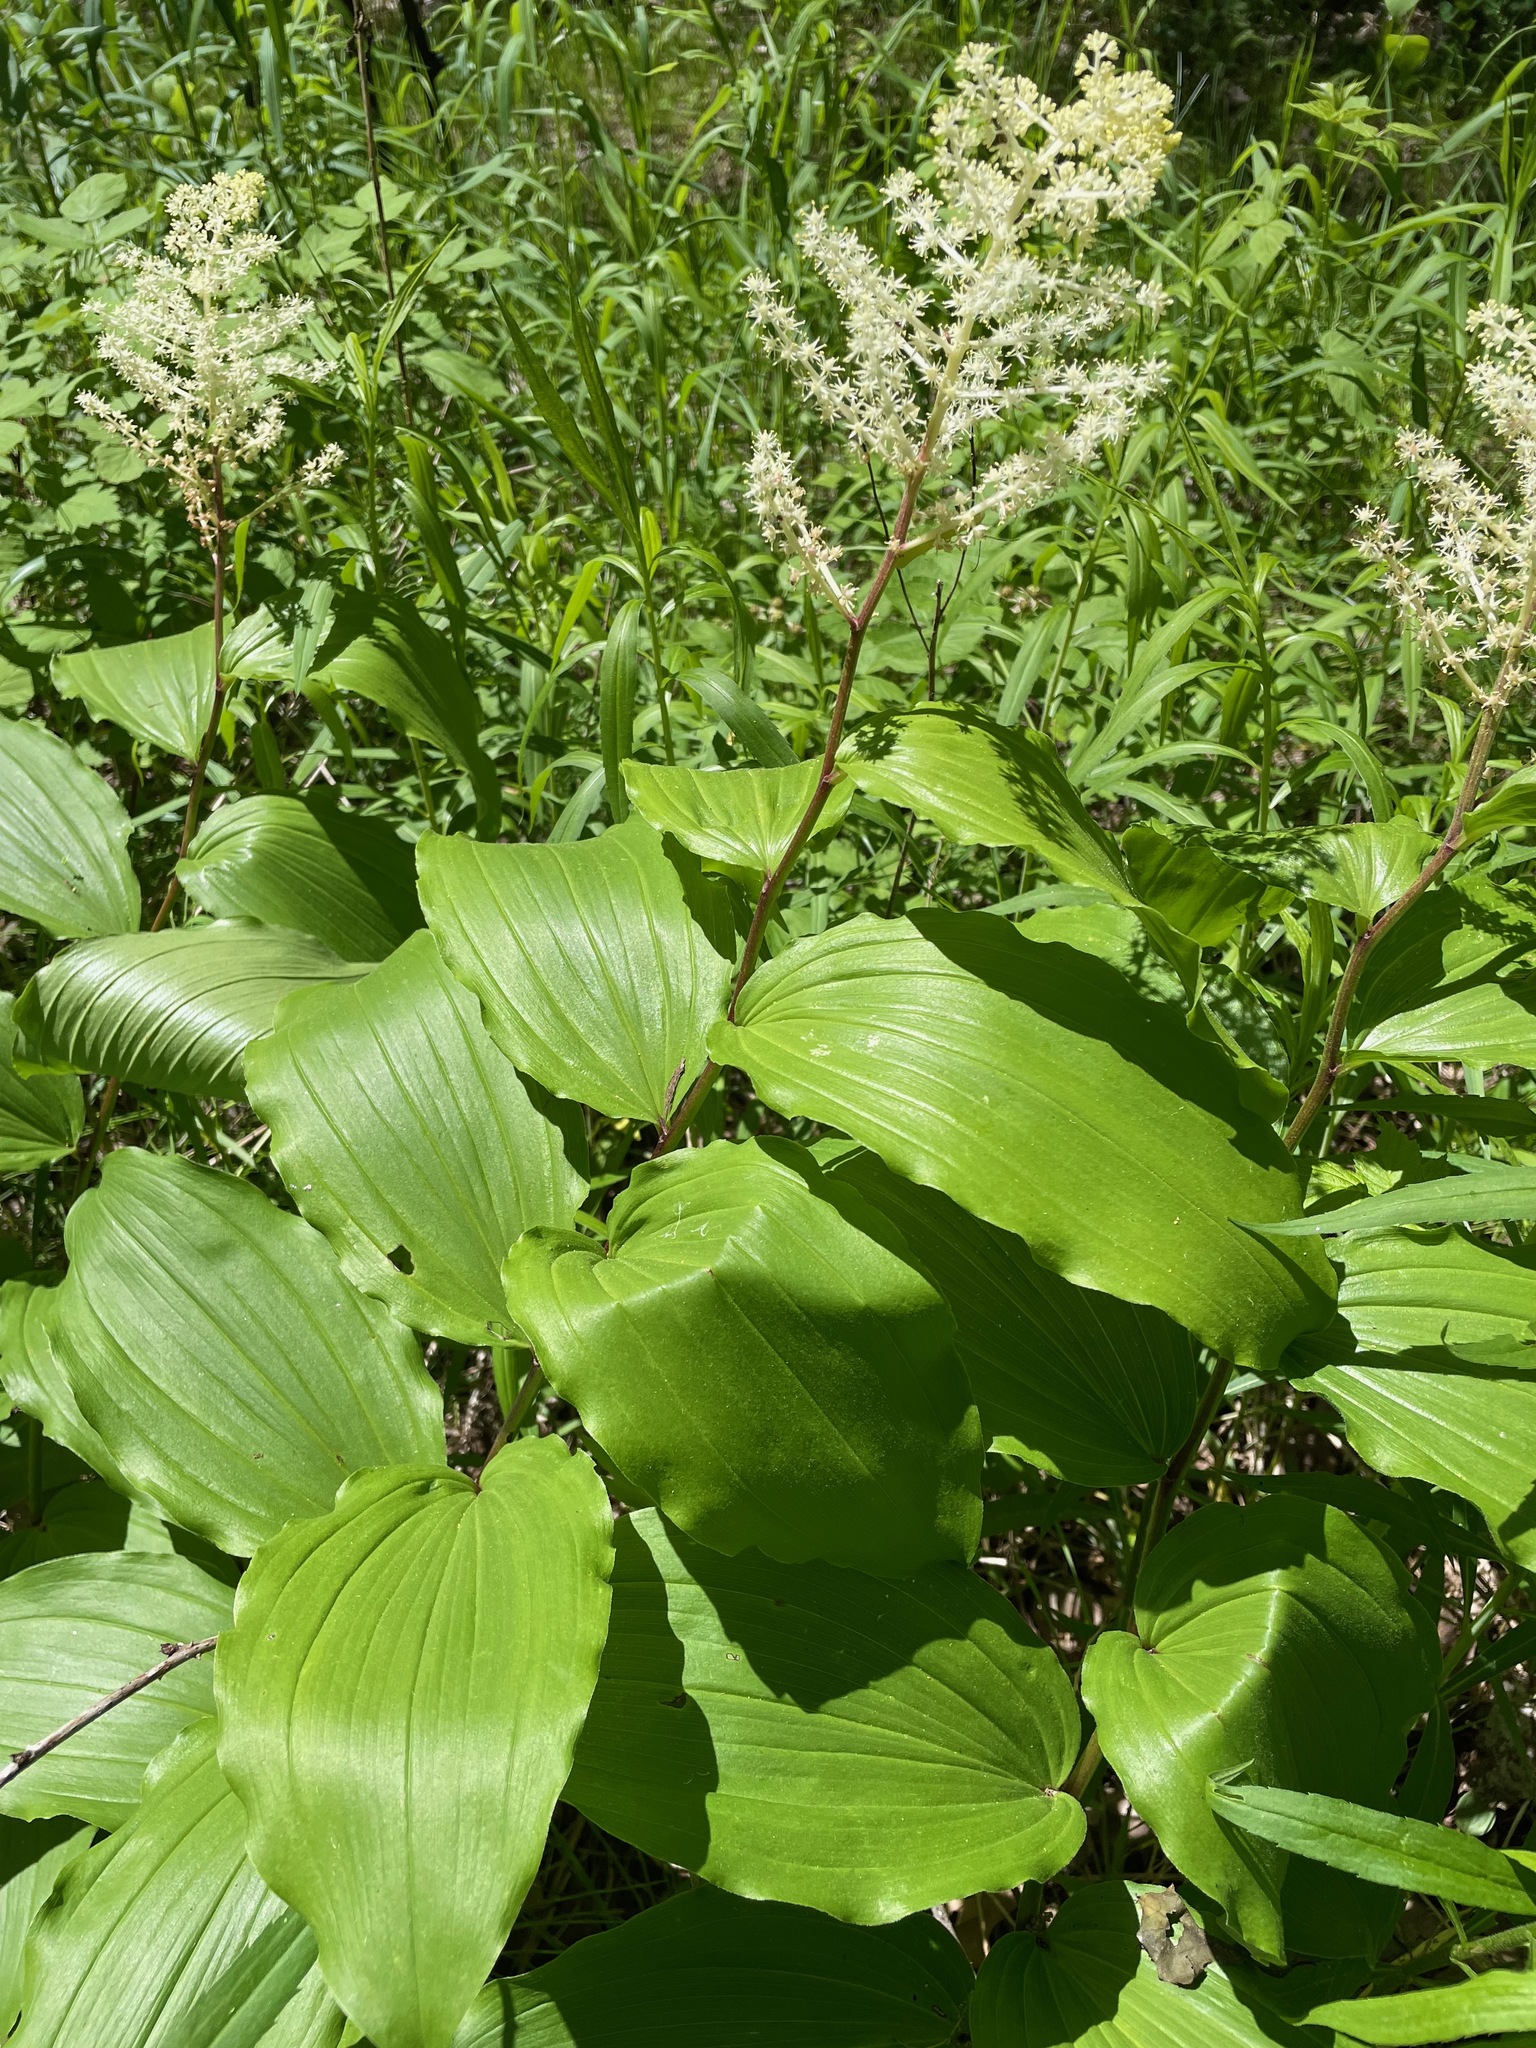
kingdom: Plantae
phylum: Tracheophyta
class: Liliopsida
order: Asparagales
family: Asparagaceae
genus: Maianthemum
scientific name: Maianthemum racemosum
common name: False spikenard
